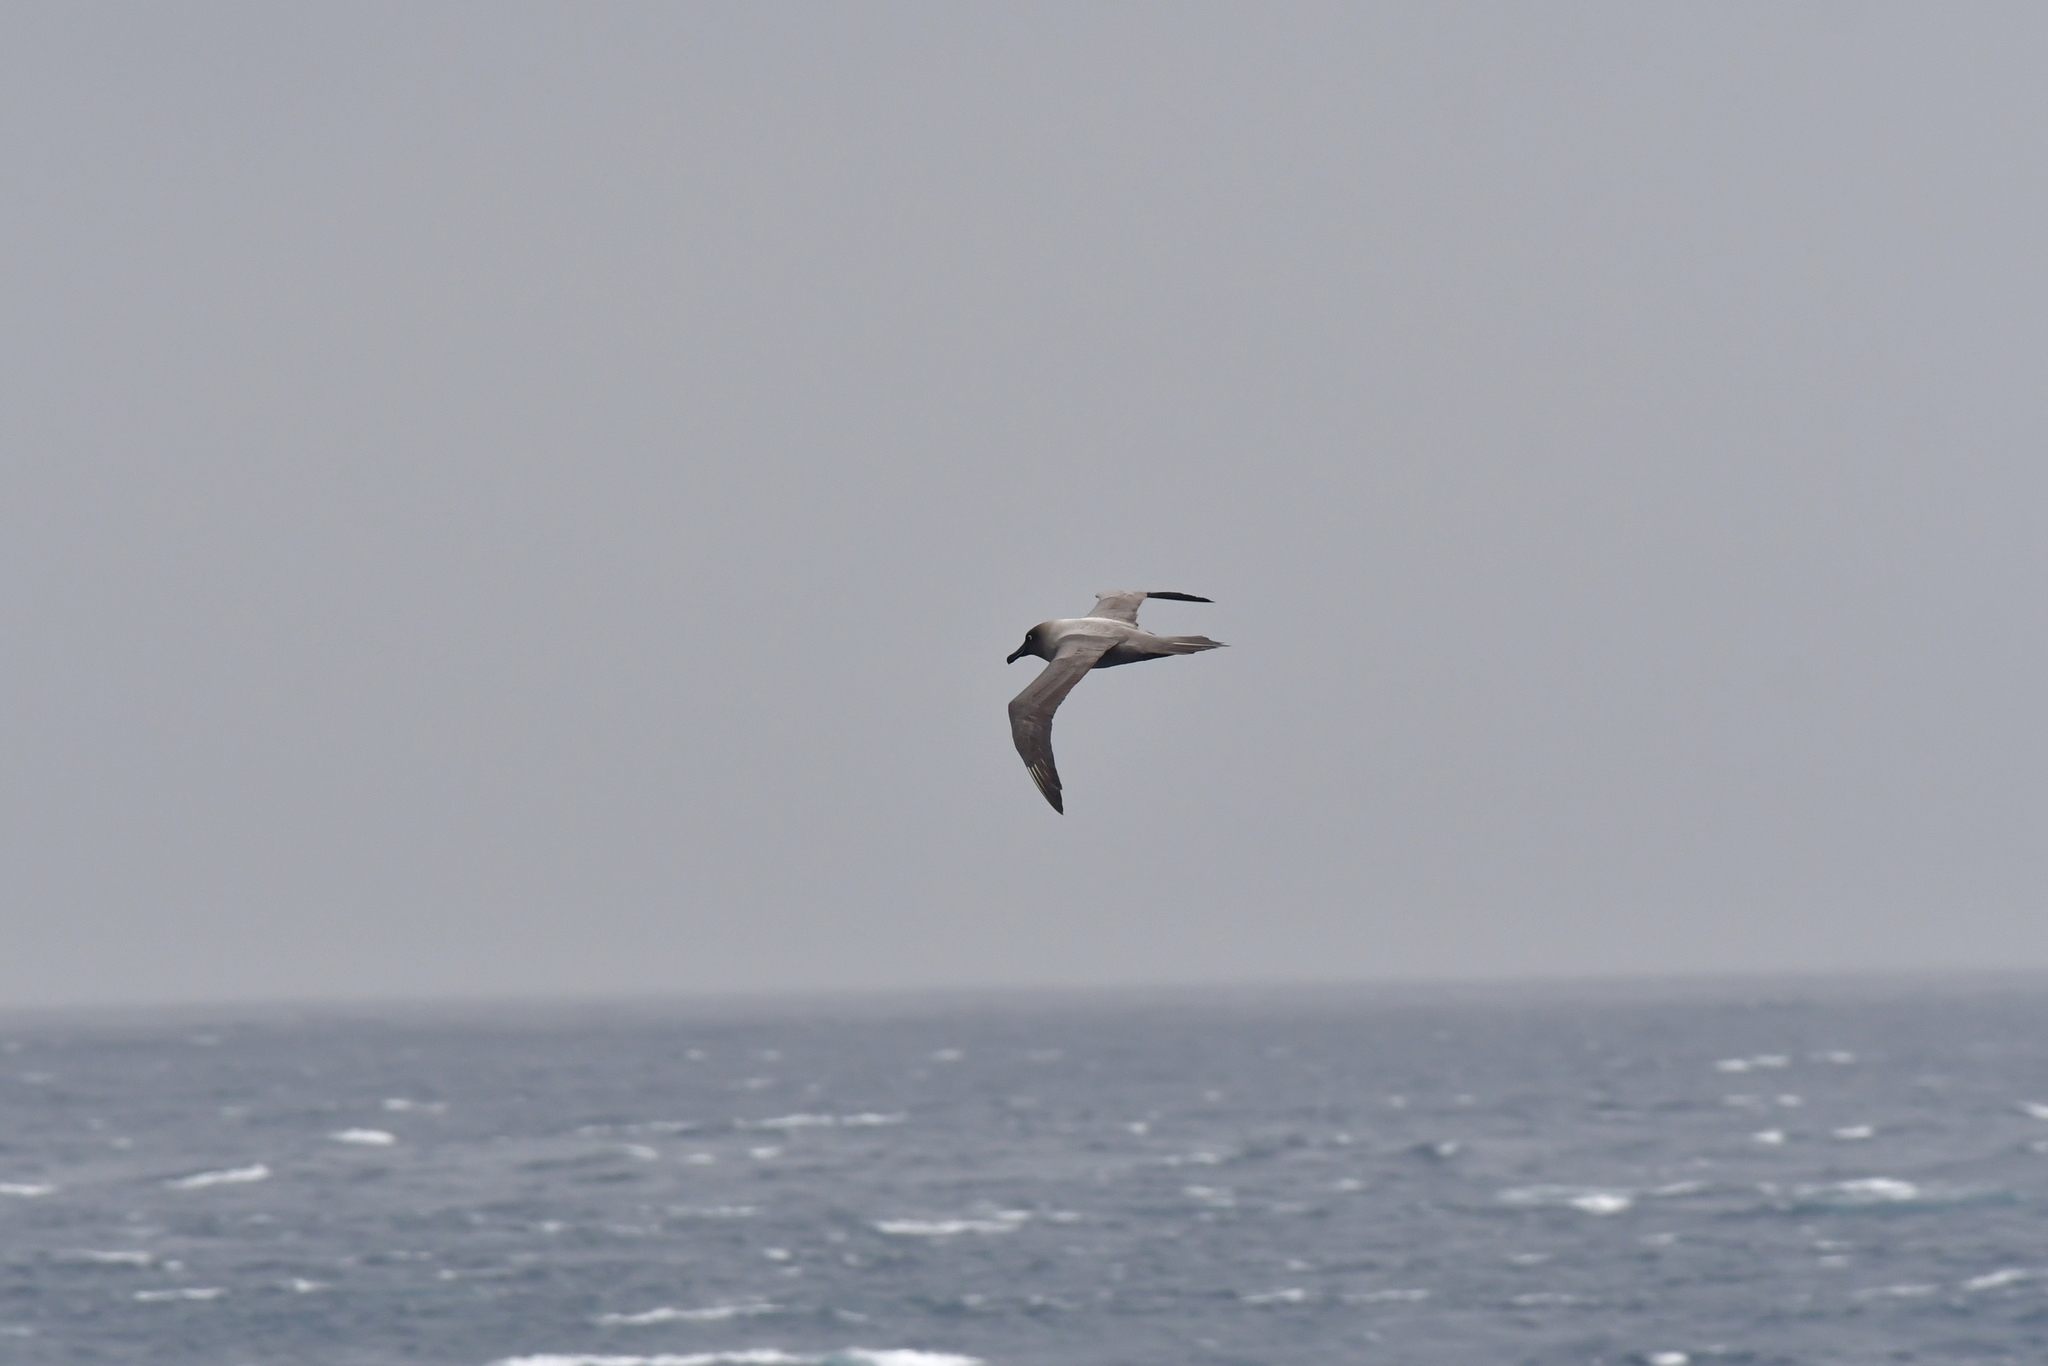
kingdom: Animalia
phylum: Chordata
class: Aves
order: Procellariiformes
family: Diomedeidae
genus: Phoebetria
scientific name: Phoebetria palpebrata
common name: Light-mantled albatross
